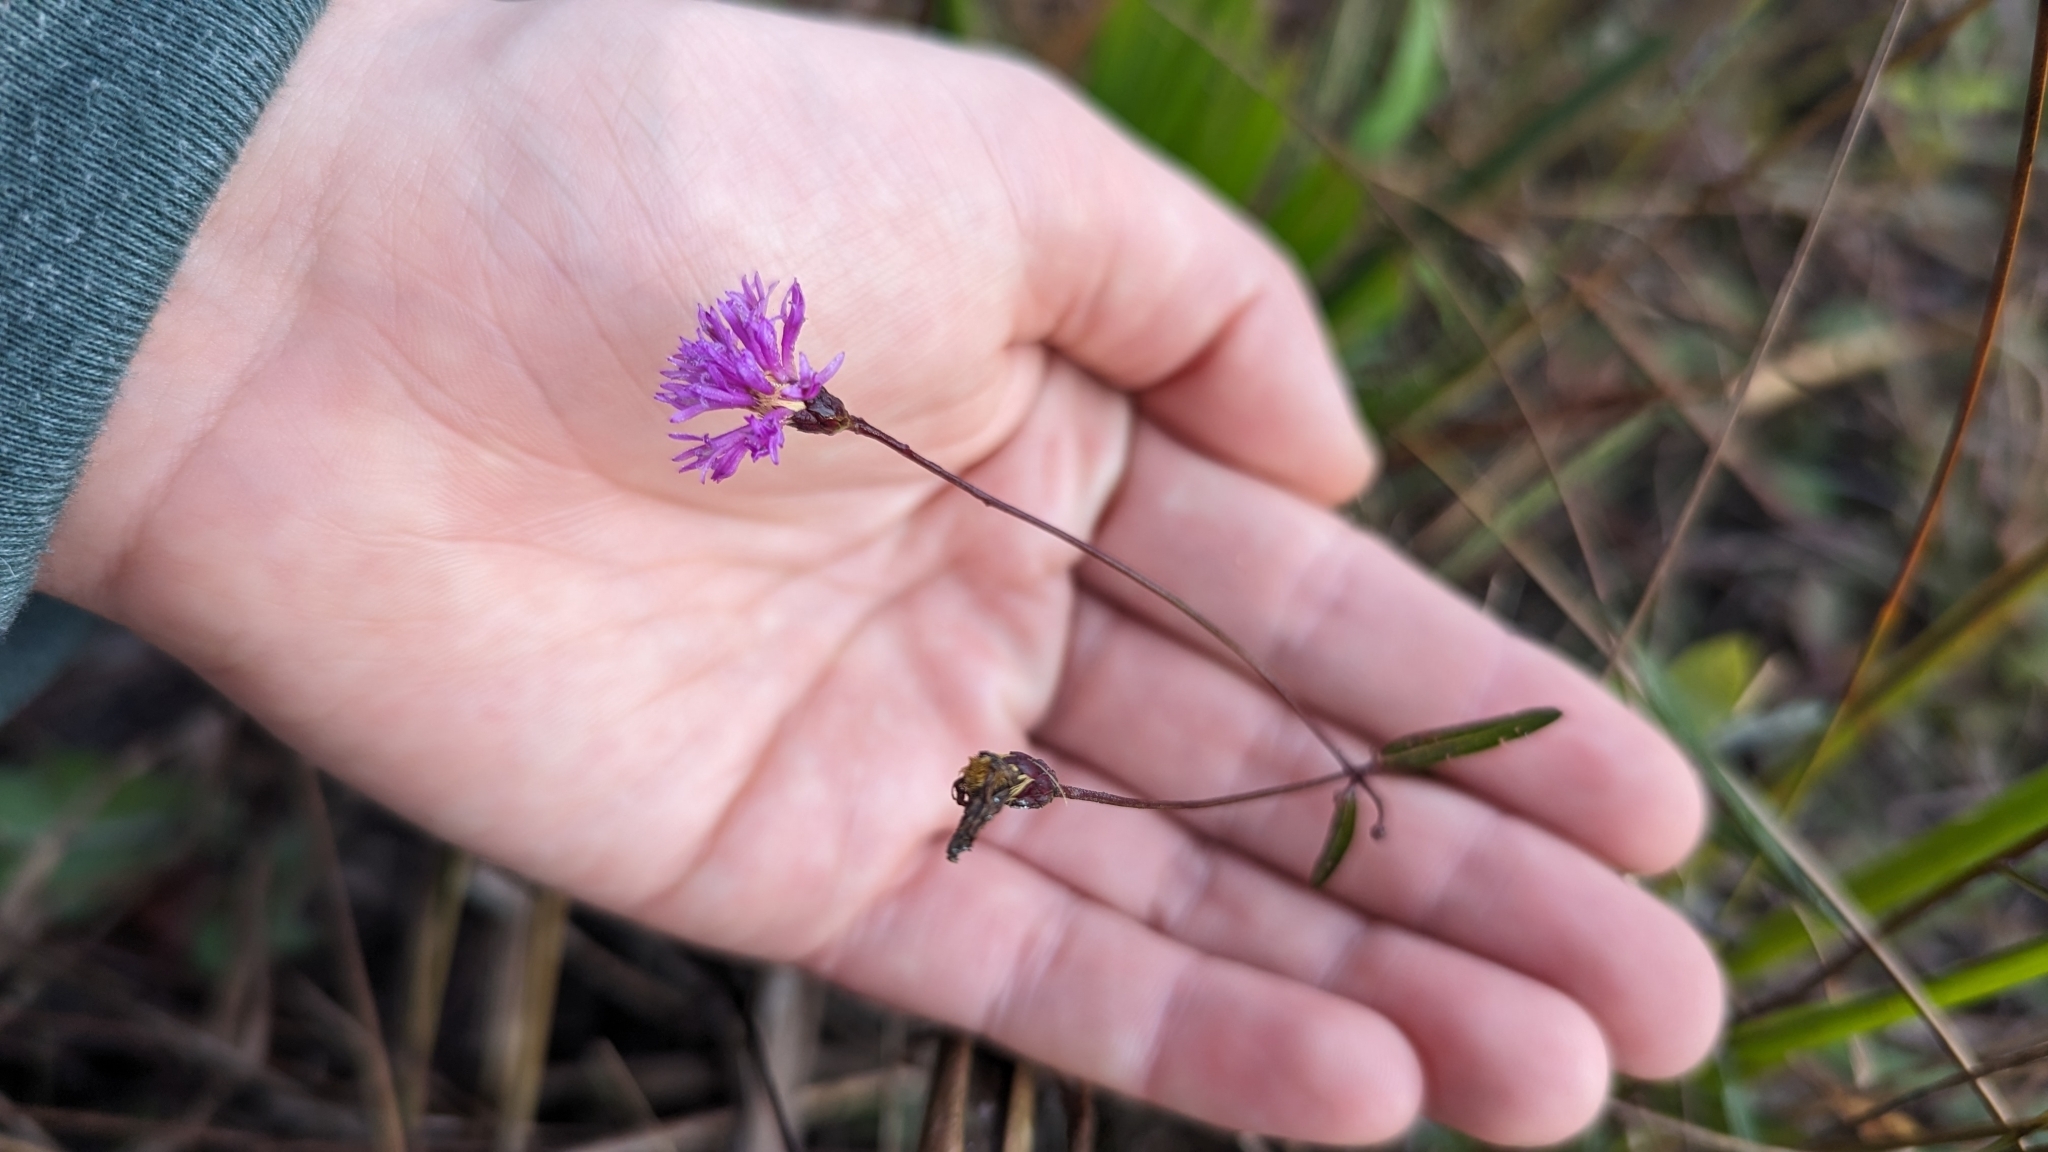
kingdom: Plantae
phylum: Tracheophyta
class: Magnoliopsida
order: Asterales
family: Asteraceae
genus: Vernonia
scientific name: Vernonia blodgettii
